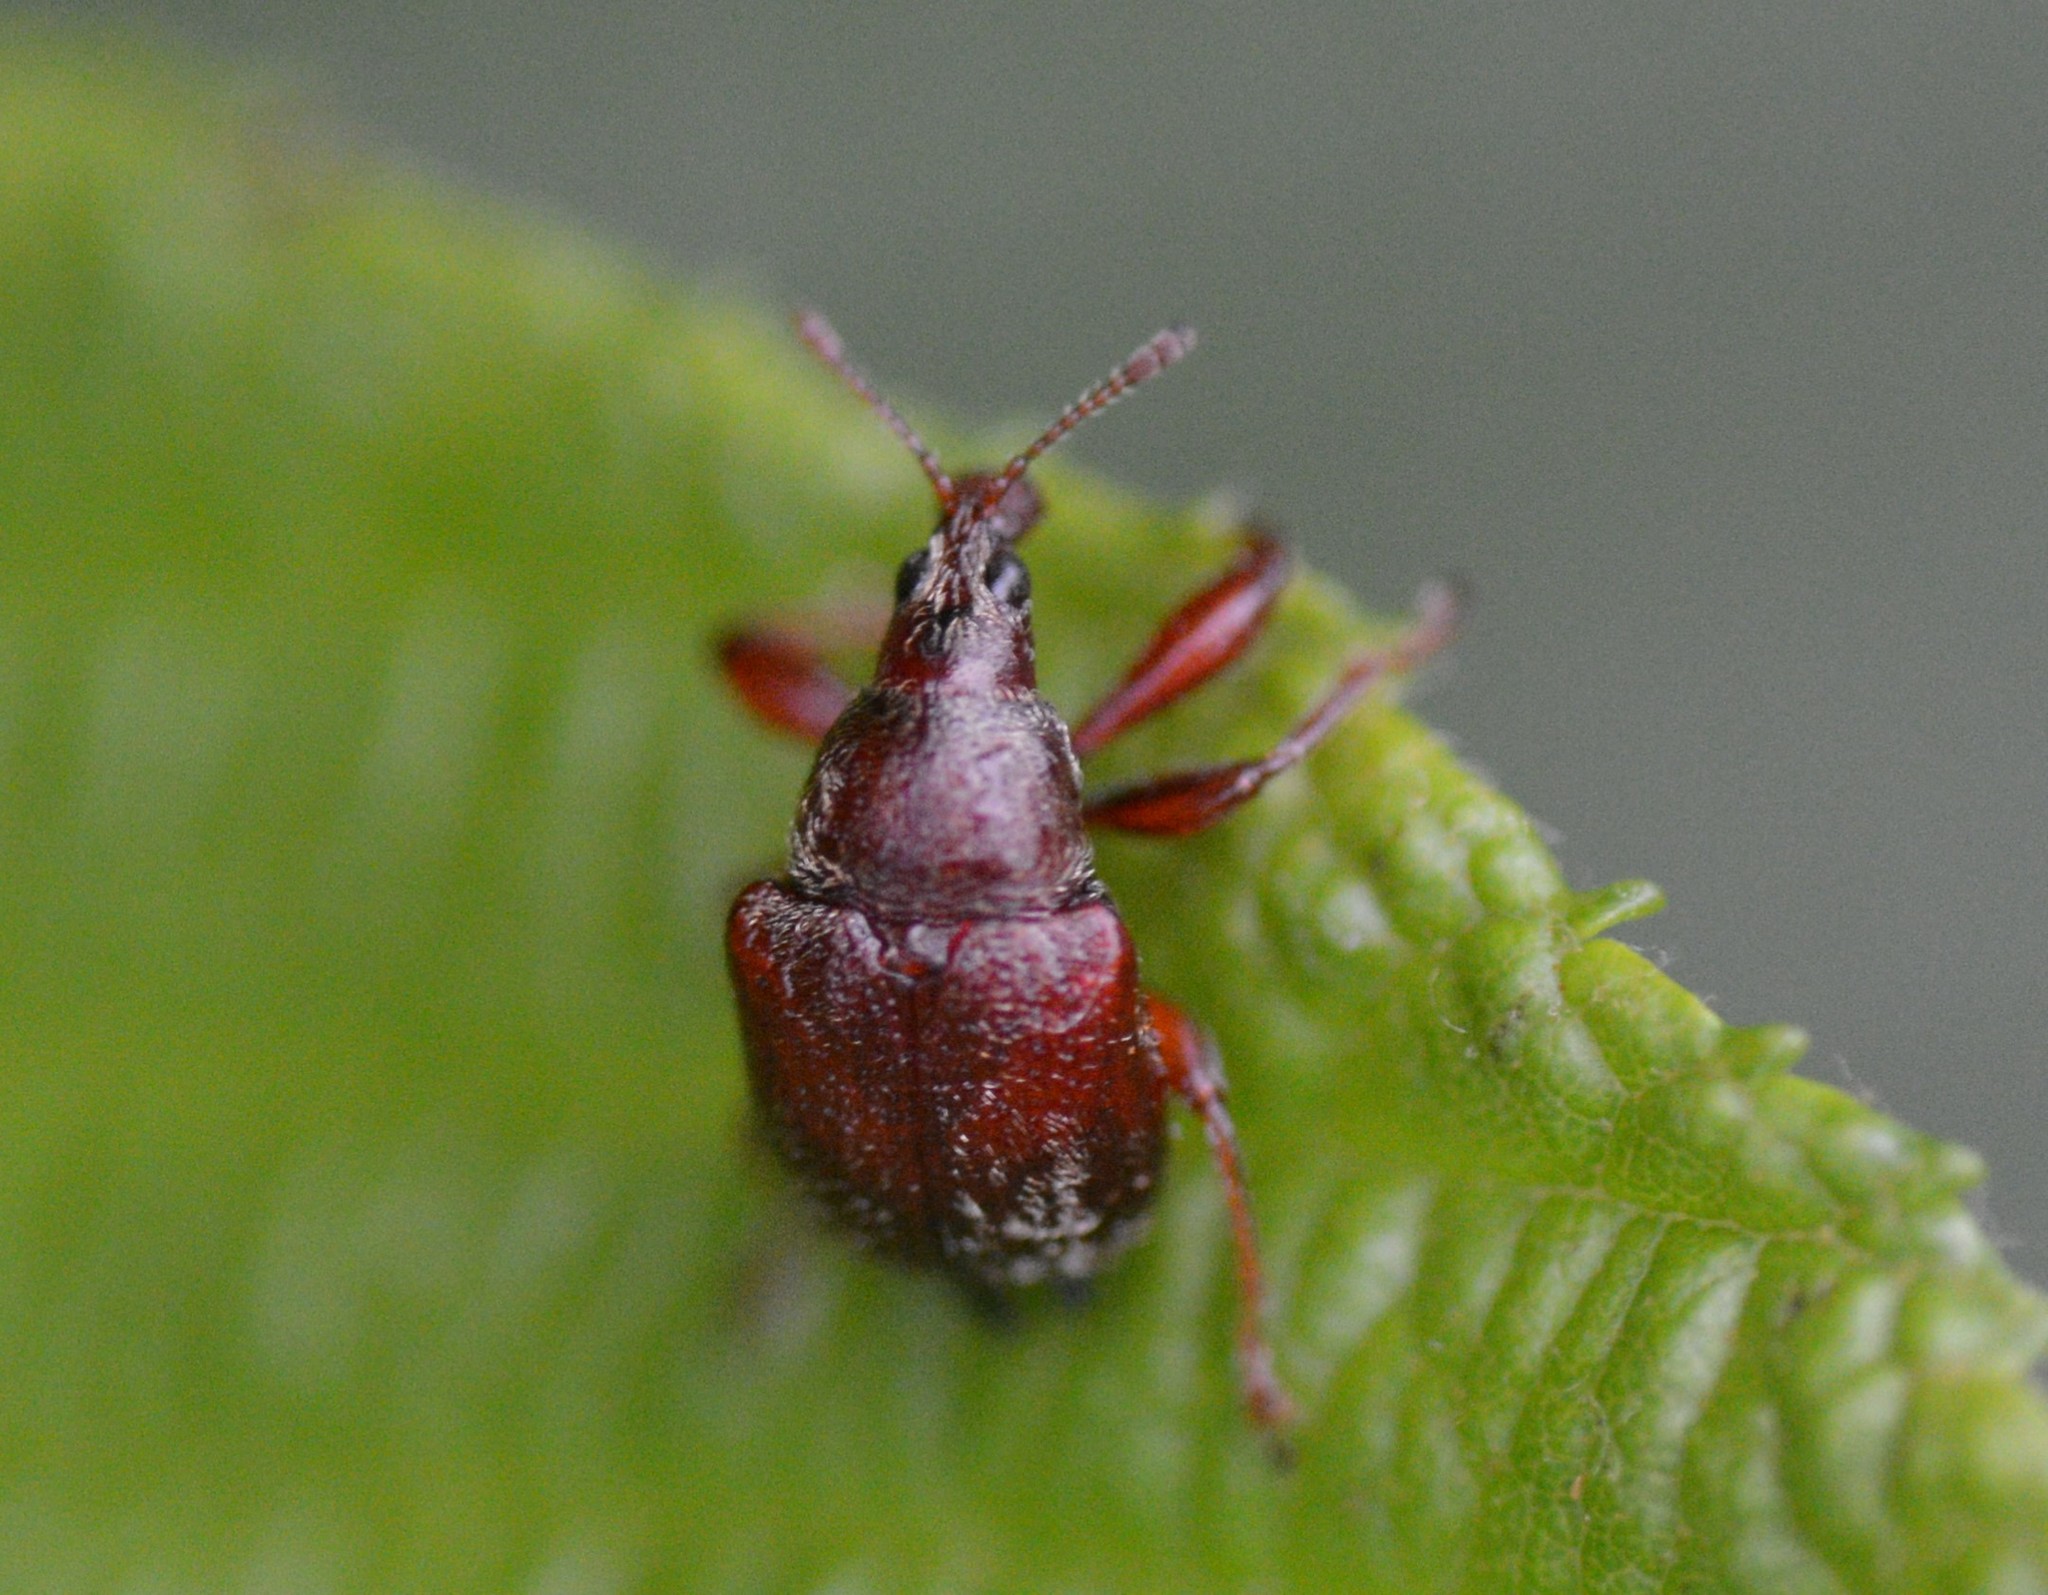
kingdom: Animalia
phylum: Arthropoda
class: Insecta
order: Coleoptera
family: Attelabidae
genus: Himatolabus
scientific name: Himatolabus pubescens
